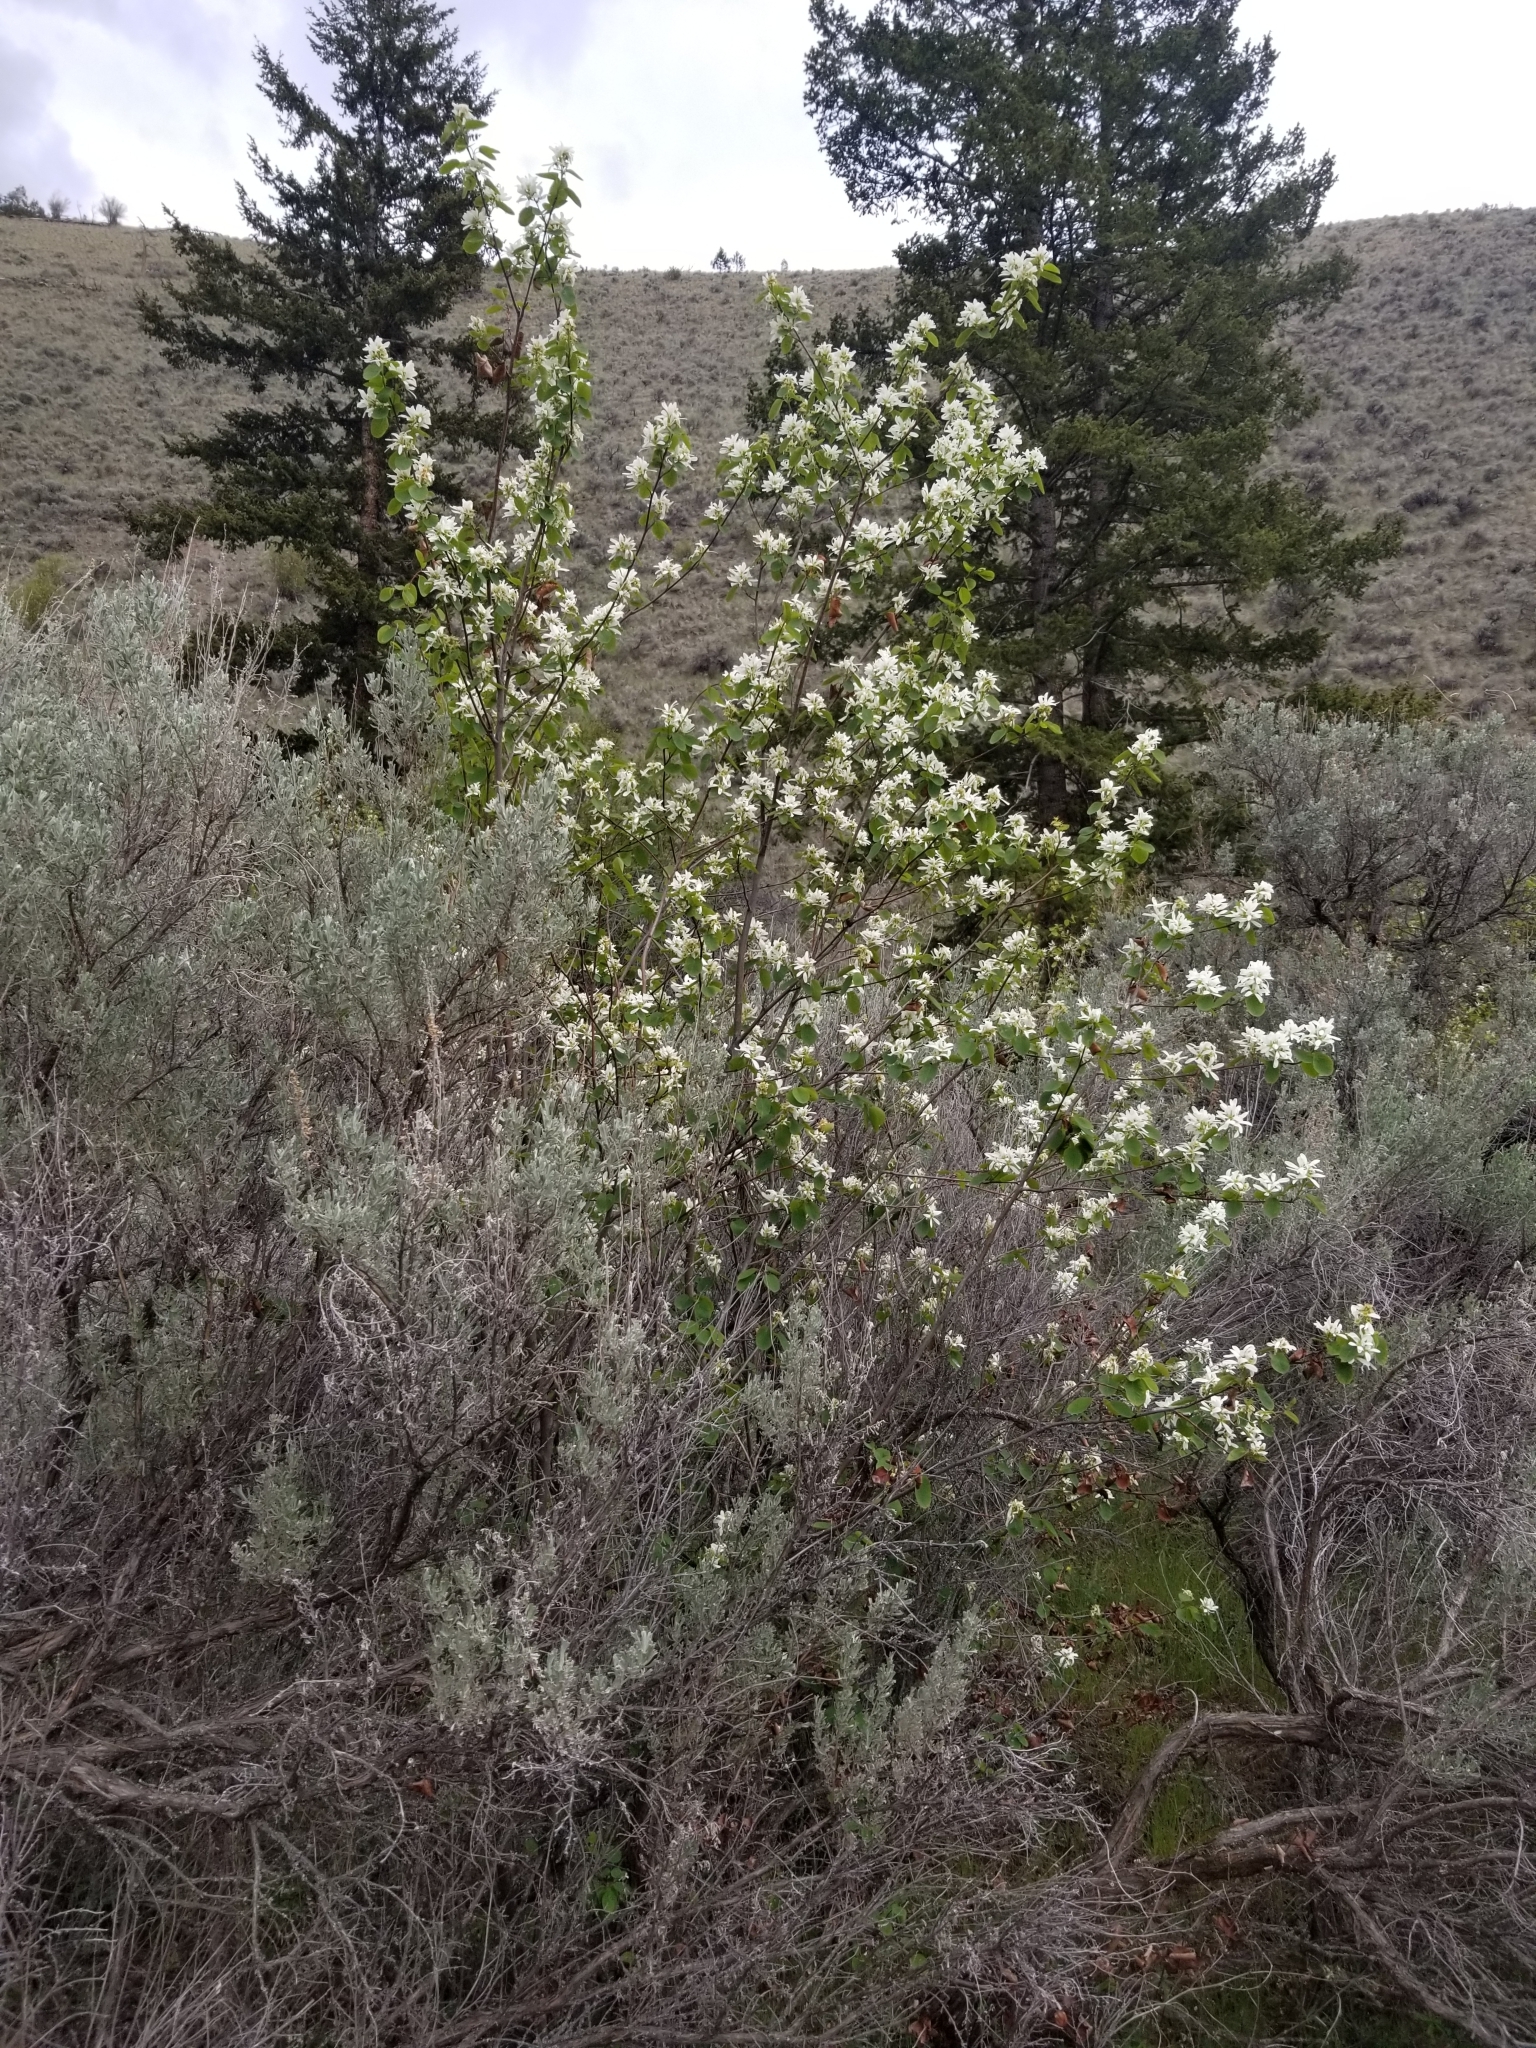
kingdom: Plantae
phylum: Tracheophyta
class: Magnoliopsida
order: Rosales
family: Rosaceae
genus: Amelanchier
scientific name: Amelanchier alnifolia
